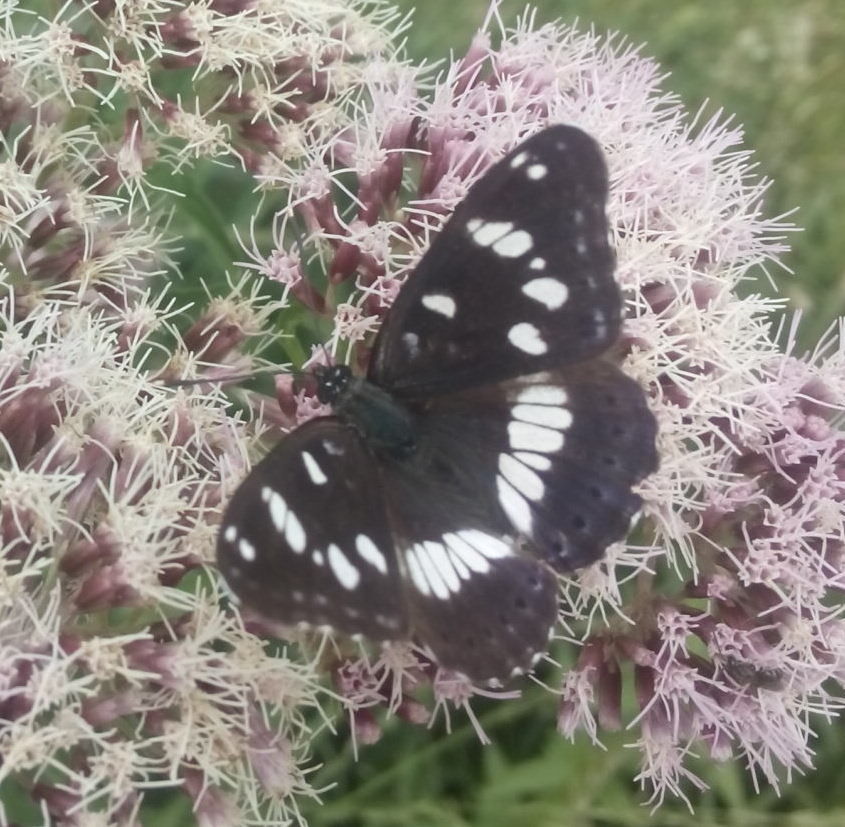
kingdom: Animalia
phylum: Arthropoda
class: Insecta
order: Lepidoptera
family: Nymphalidae
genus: Limenitis
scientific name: Limenitis reducta
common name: Southern white admiral
